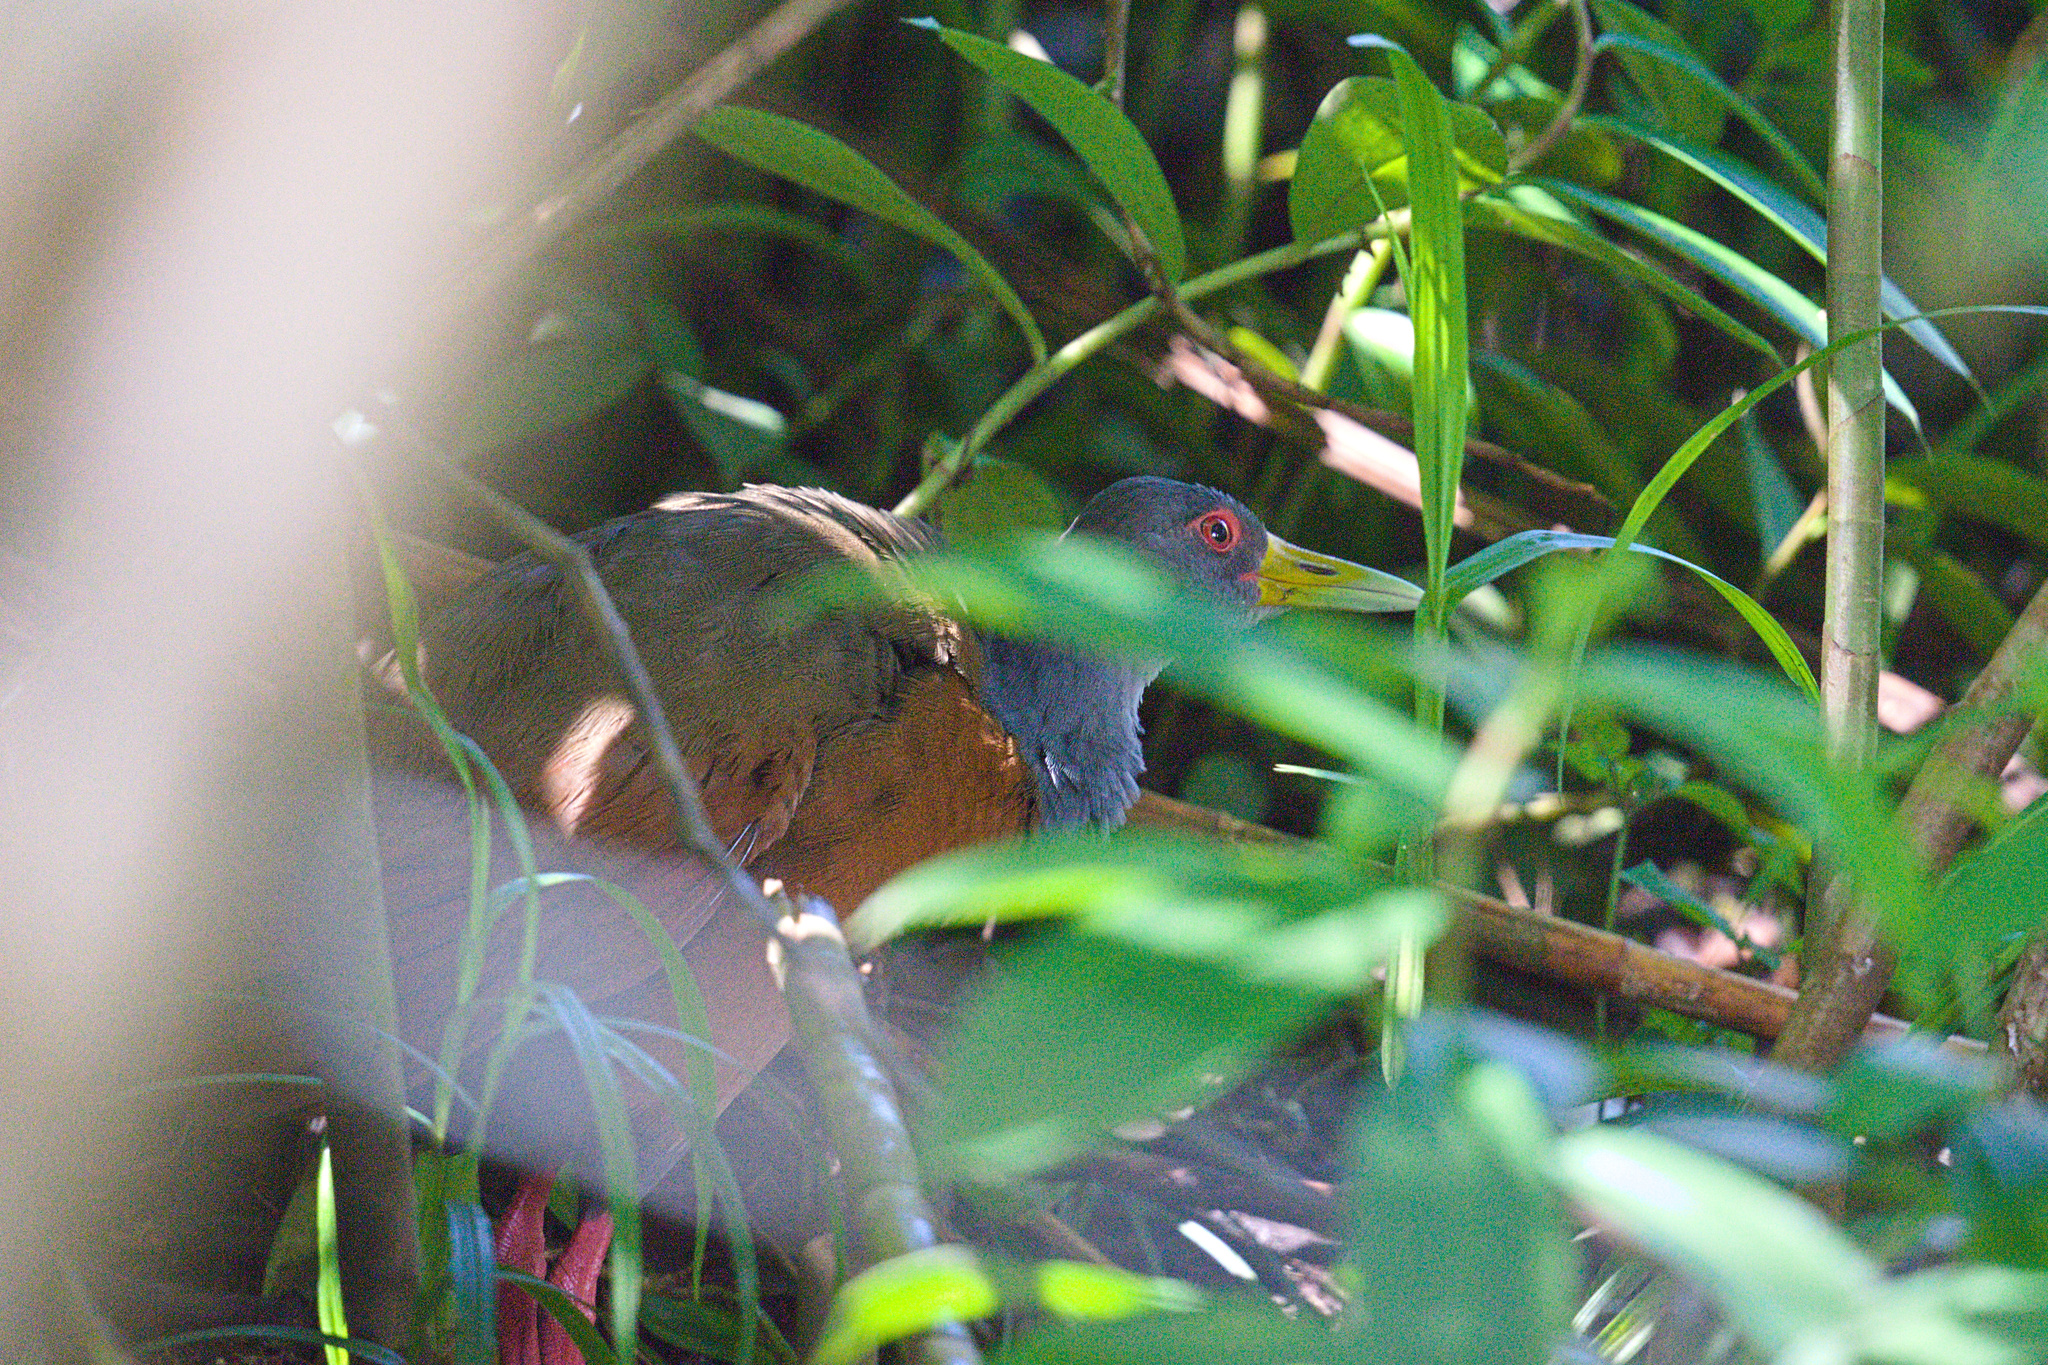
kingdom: Animalia
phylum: Chordata
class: Aves
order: Gruiformes
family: Rallidae
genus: Aramides
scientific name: Aramides cajanea
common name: Gray-necked wood-rail
